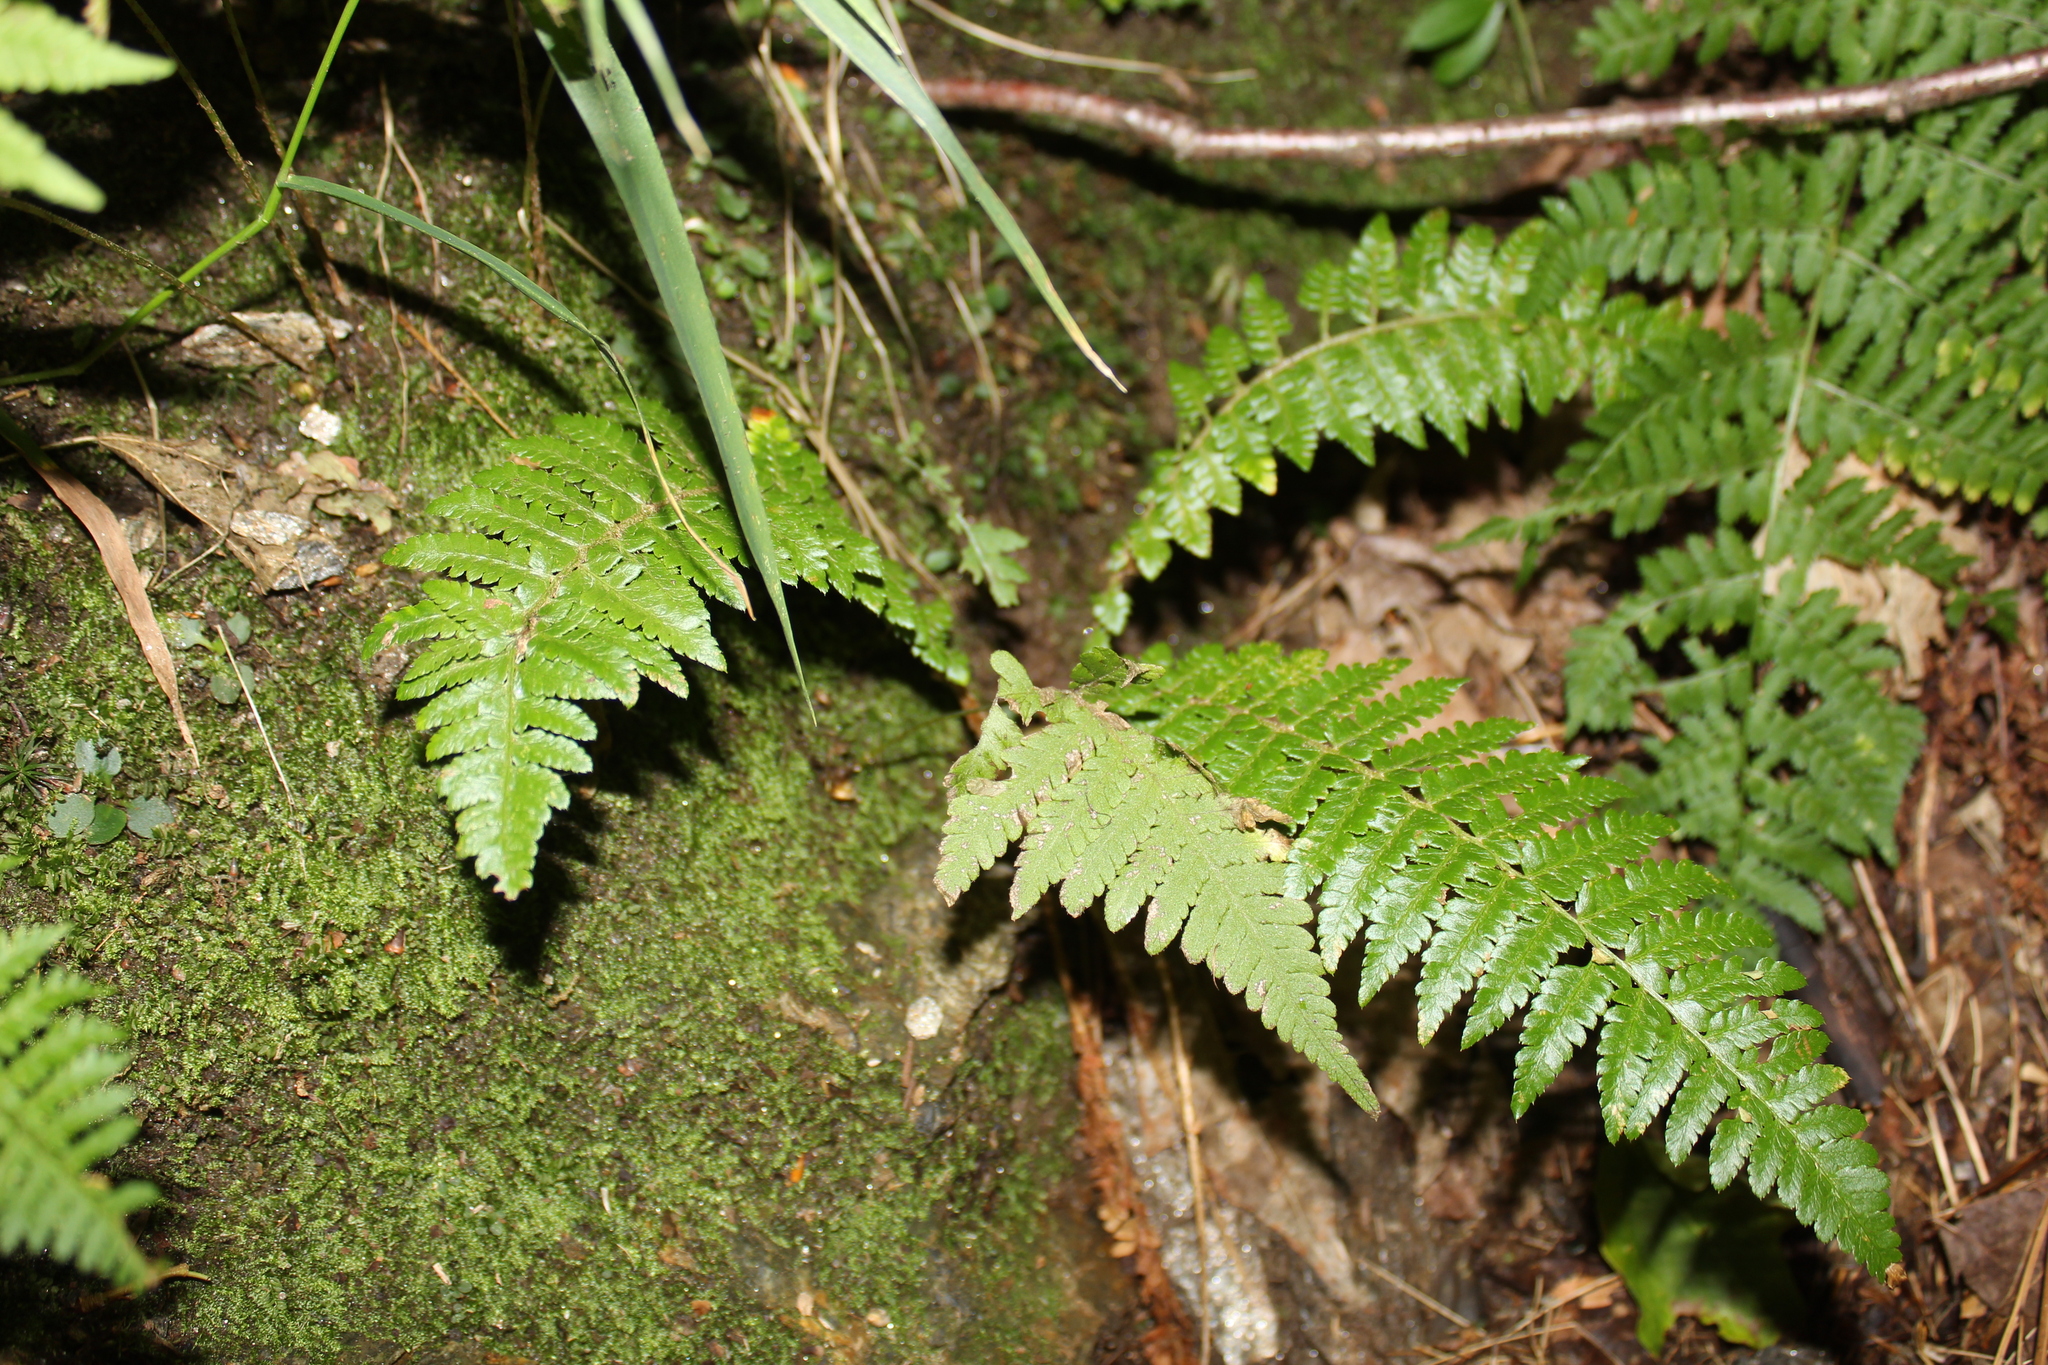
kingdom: Plantae
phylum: Tracheophyta
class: Polypodiopsida
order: Polypodiales
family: Dryopteridaceae
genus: Polystichum
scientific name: Polystichum braunii
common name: Braun's holly fern
